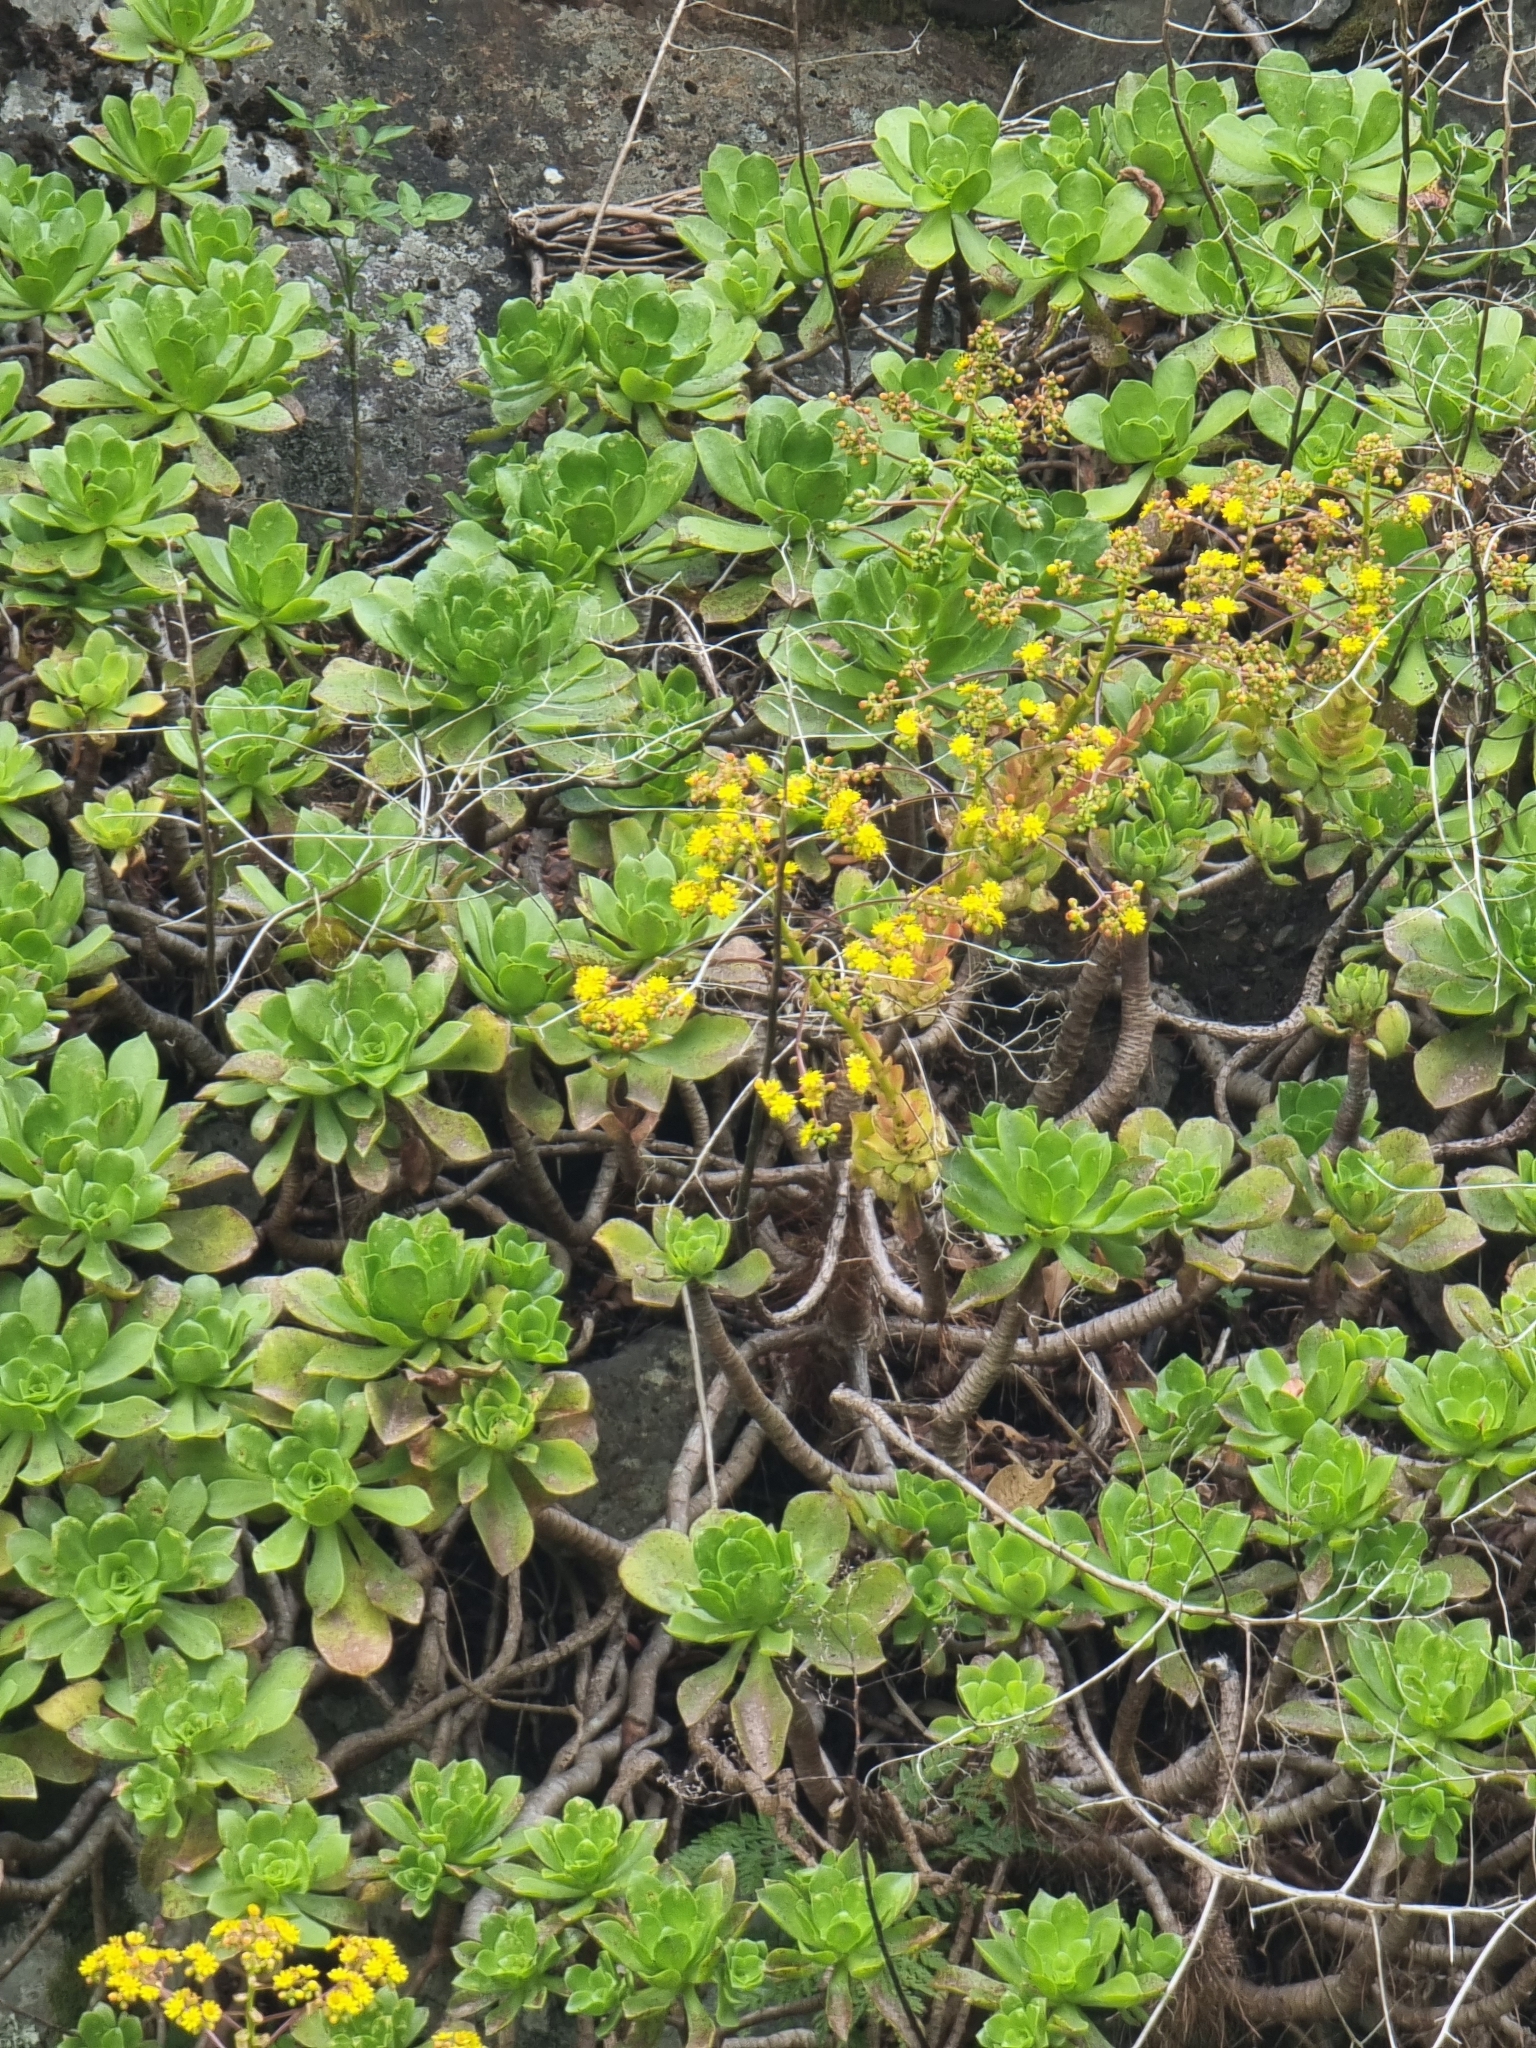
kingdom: Plantae
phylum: Tracheophyta
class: Magnoliopsida
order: Saxifragales
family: Crassulaceae
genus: Aeonium
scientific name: Aeonium glutinosum
